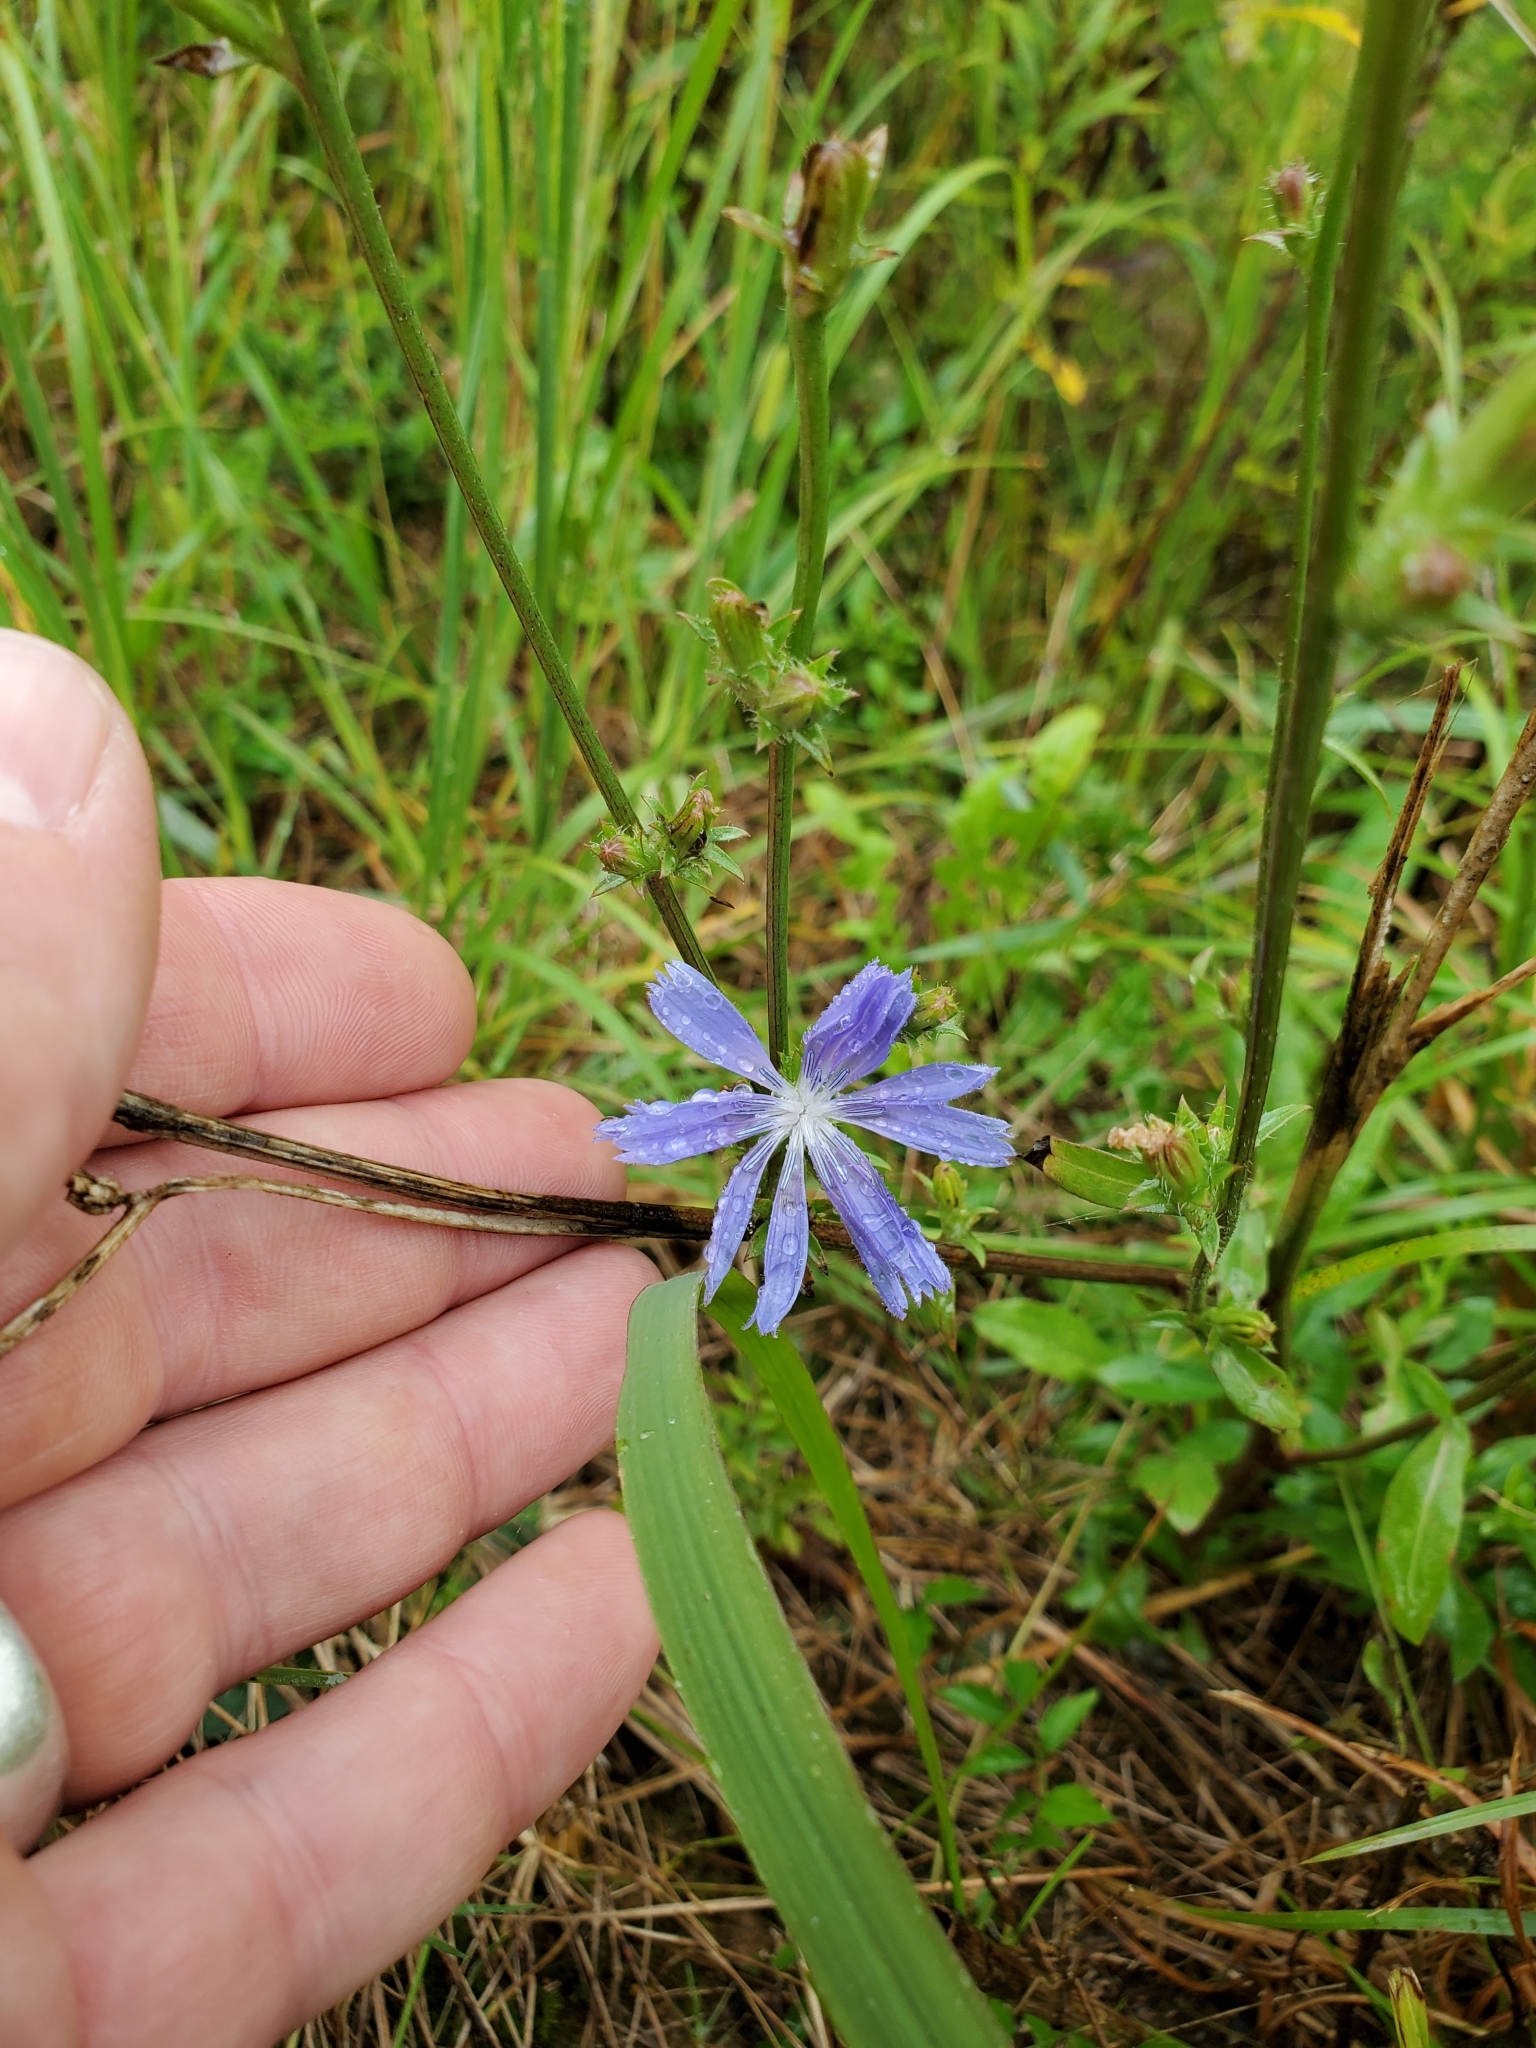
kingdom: Plantae
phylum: Tracheophyta
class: Magnoliopsida
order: Asterales
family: Asteraceae
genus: Cichorium
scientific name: Cichorium intybus
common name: Chicory
